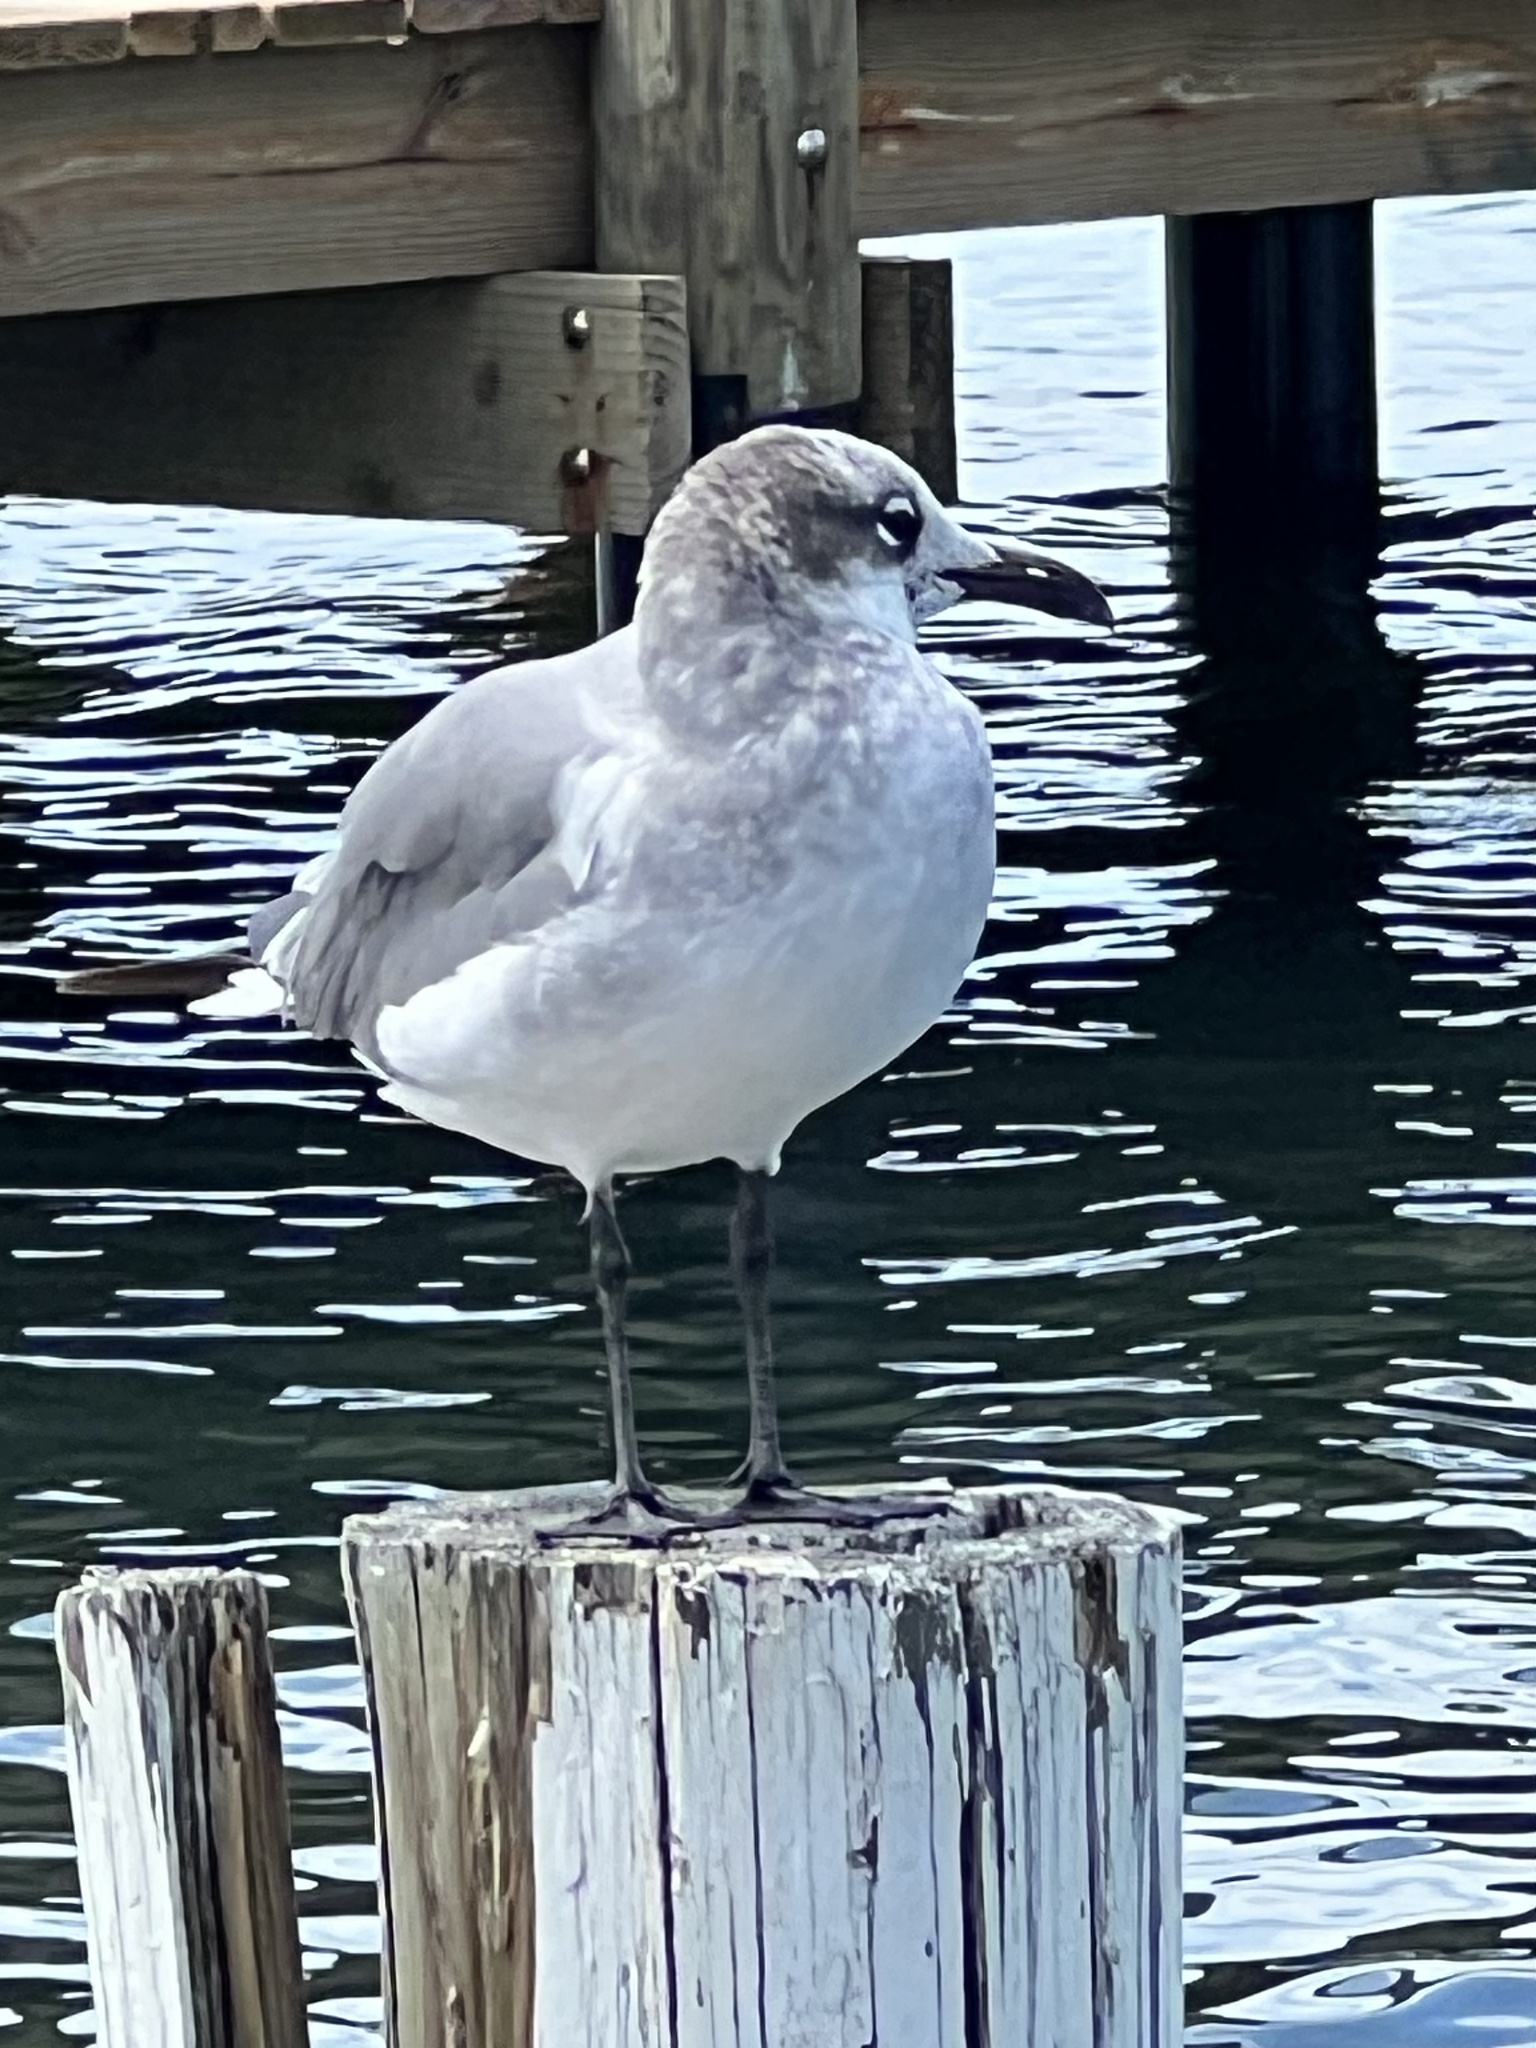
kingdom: Animalia
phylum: Chordata
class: Aves
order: Charadriiformes
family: Laridae
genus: Leucophaeus
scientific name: Leucophaeus atricilla
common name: Laughing gull
